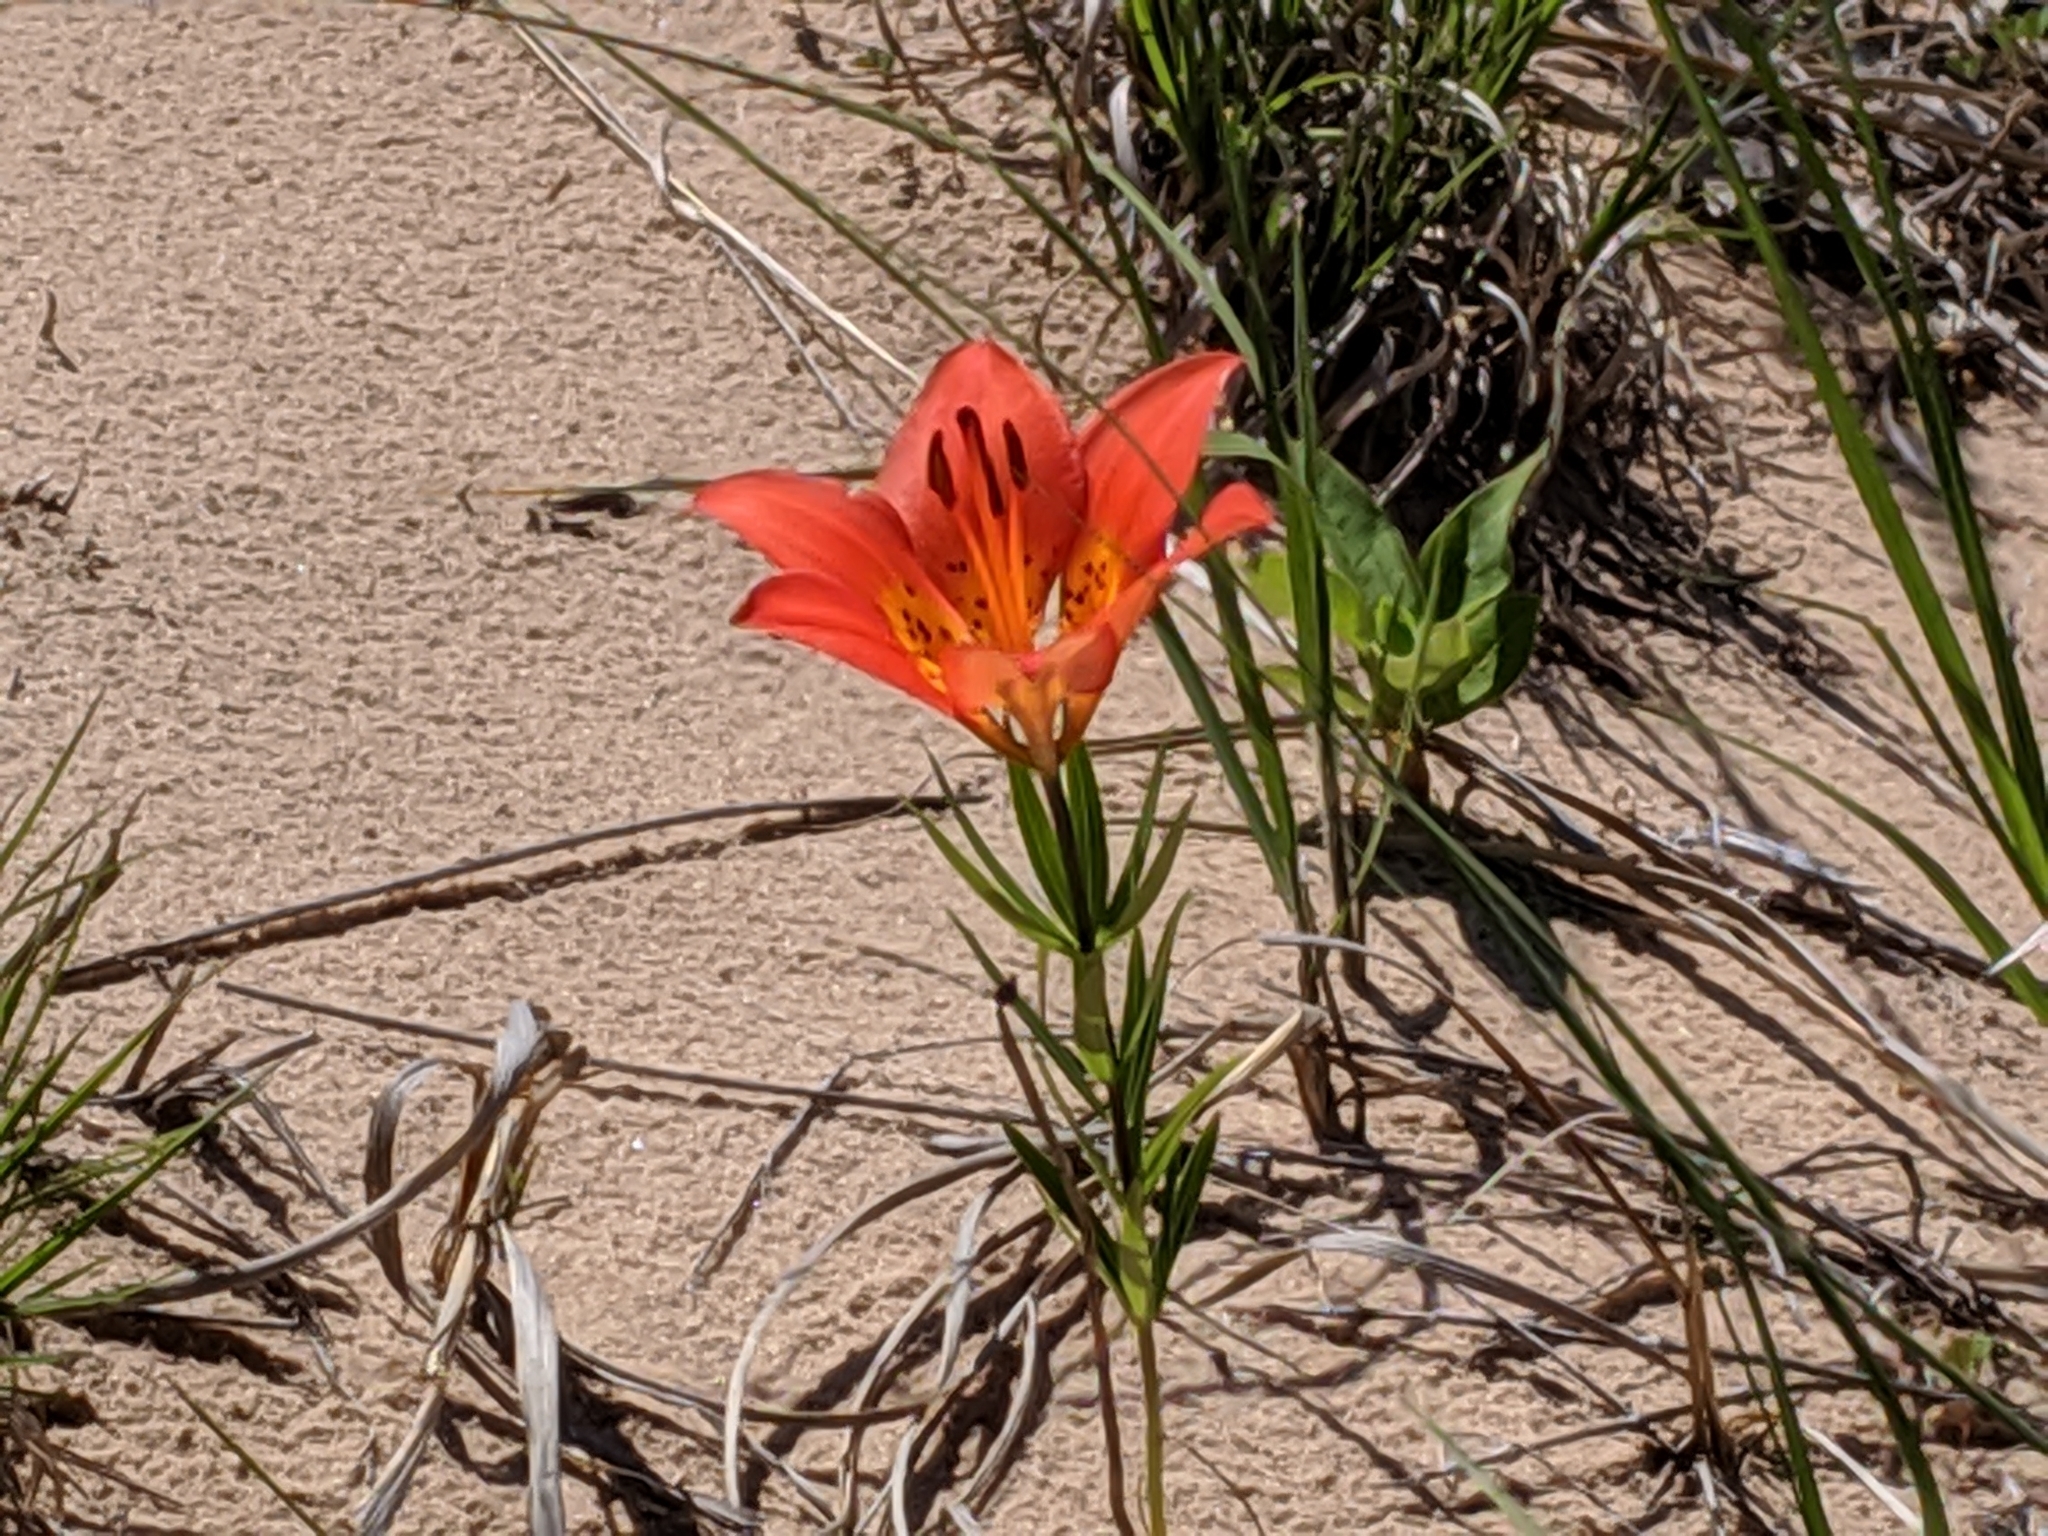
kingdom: Plantae
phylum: Tracheophyta
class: Liliopsida
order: Liliales
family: Liliaceae
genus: Lilium
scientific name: Lilium philadelphicum
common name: Red lily
